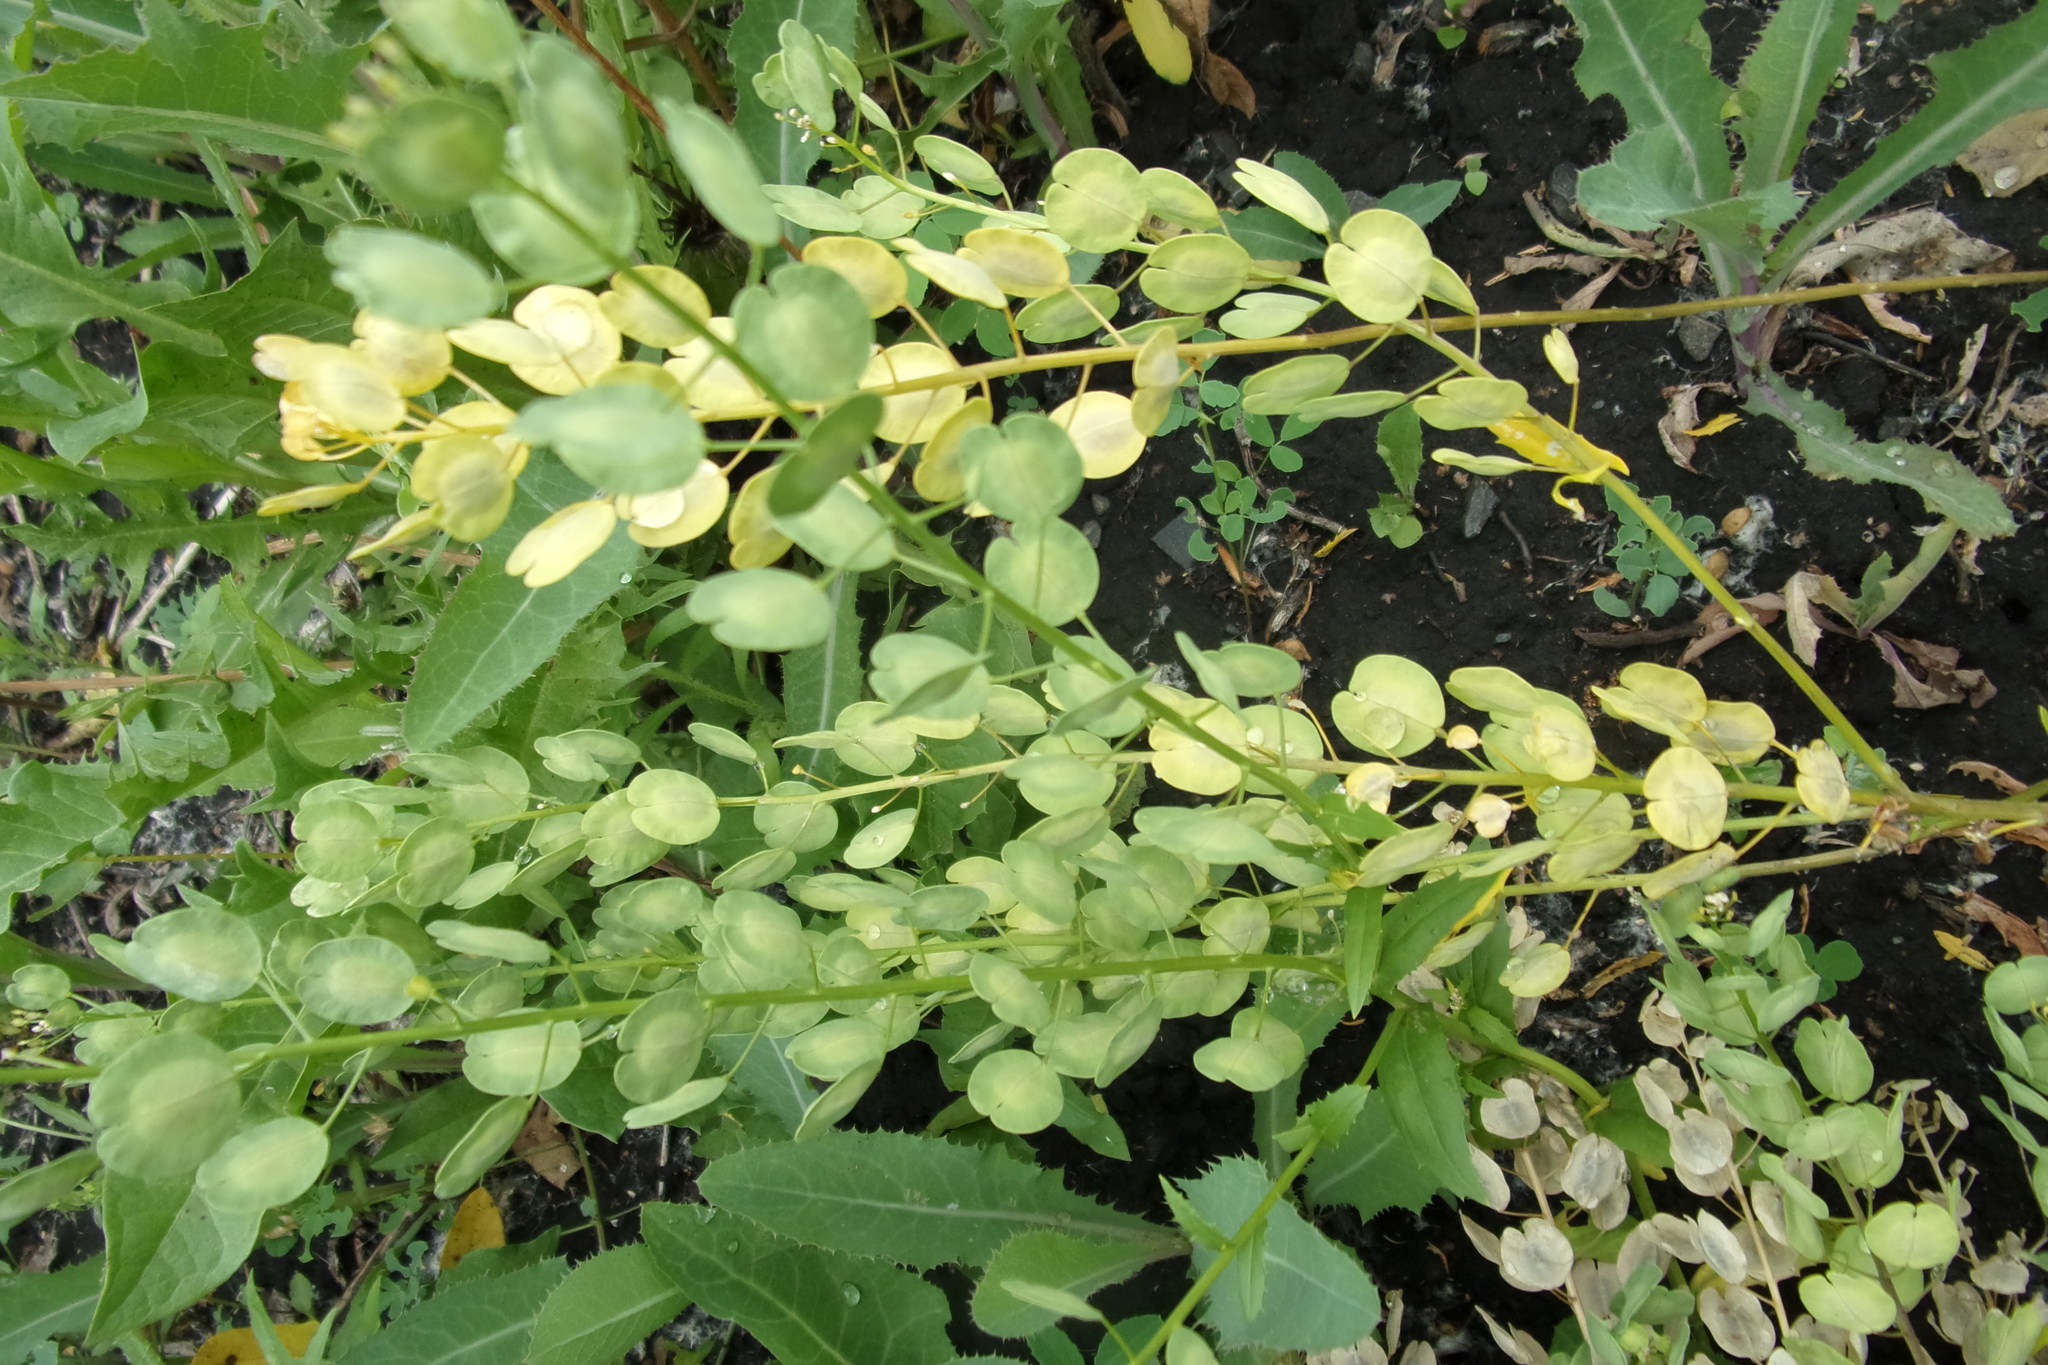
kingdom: Plantae
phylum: Tracheophyta
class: Magnoliopsida
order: Brassicales
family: Brassicaceae
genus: Thlaspi
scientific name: Thlaspi arvense
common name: Field pennycress
